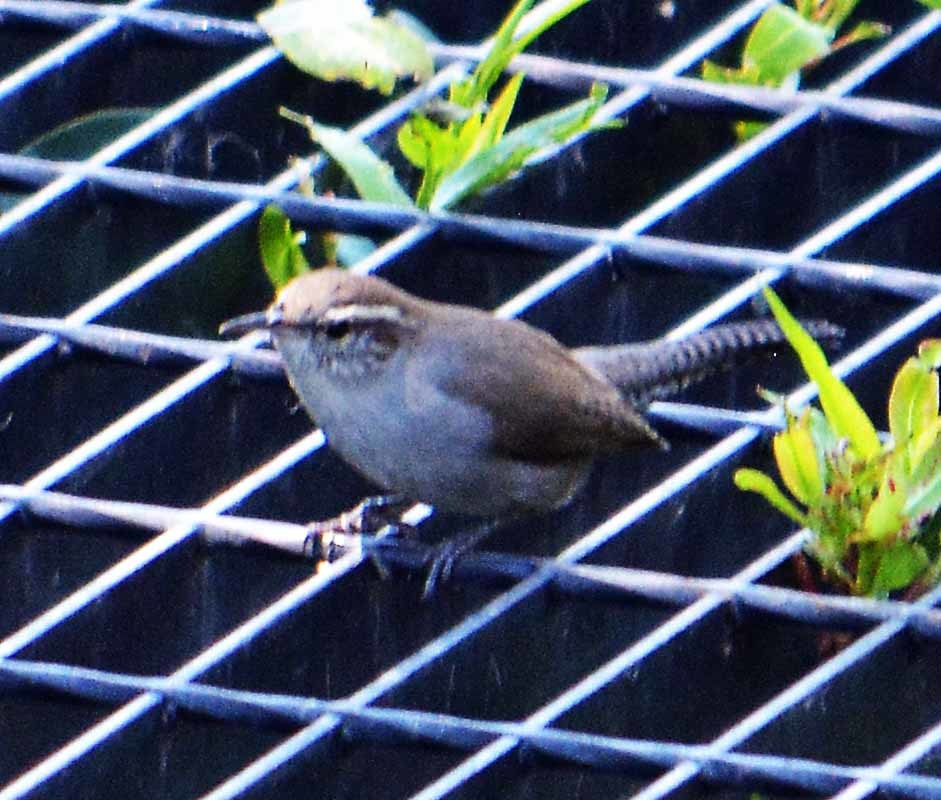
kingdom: Animalia
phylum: Chordata
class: Aves
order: Passeriformes
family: Troglodytidae
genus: Thryomanes
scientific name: Thryomanes bewickii
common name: Bewick's wren
